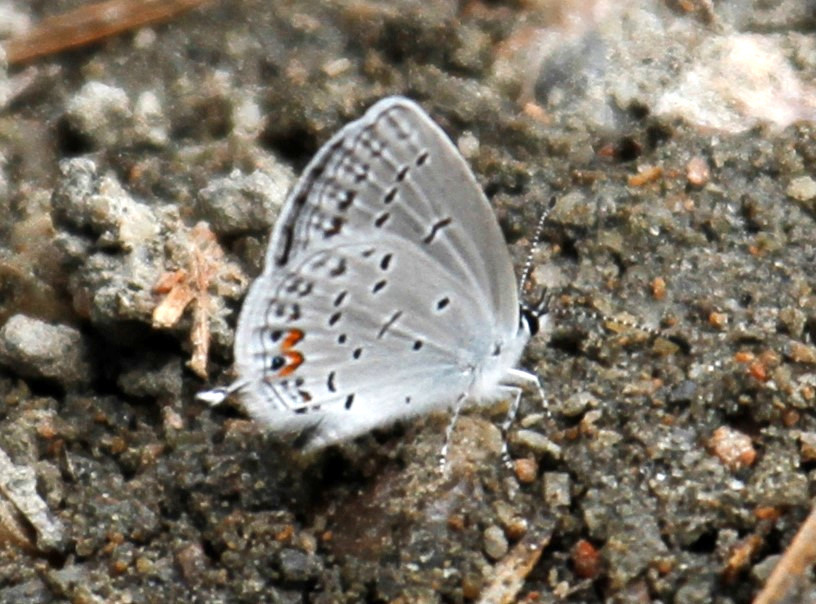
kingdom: Animalia
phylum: Arthropoda
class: Insecta
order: Lepidoptera
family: Lycaenidae
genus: Elkalyce
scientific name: Elkalyce comyntas
